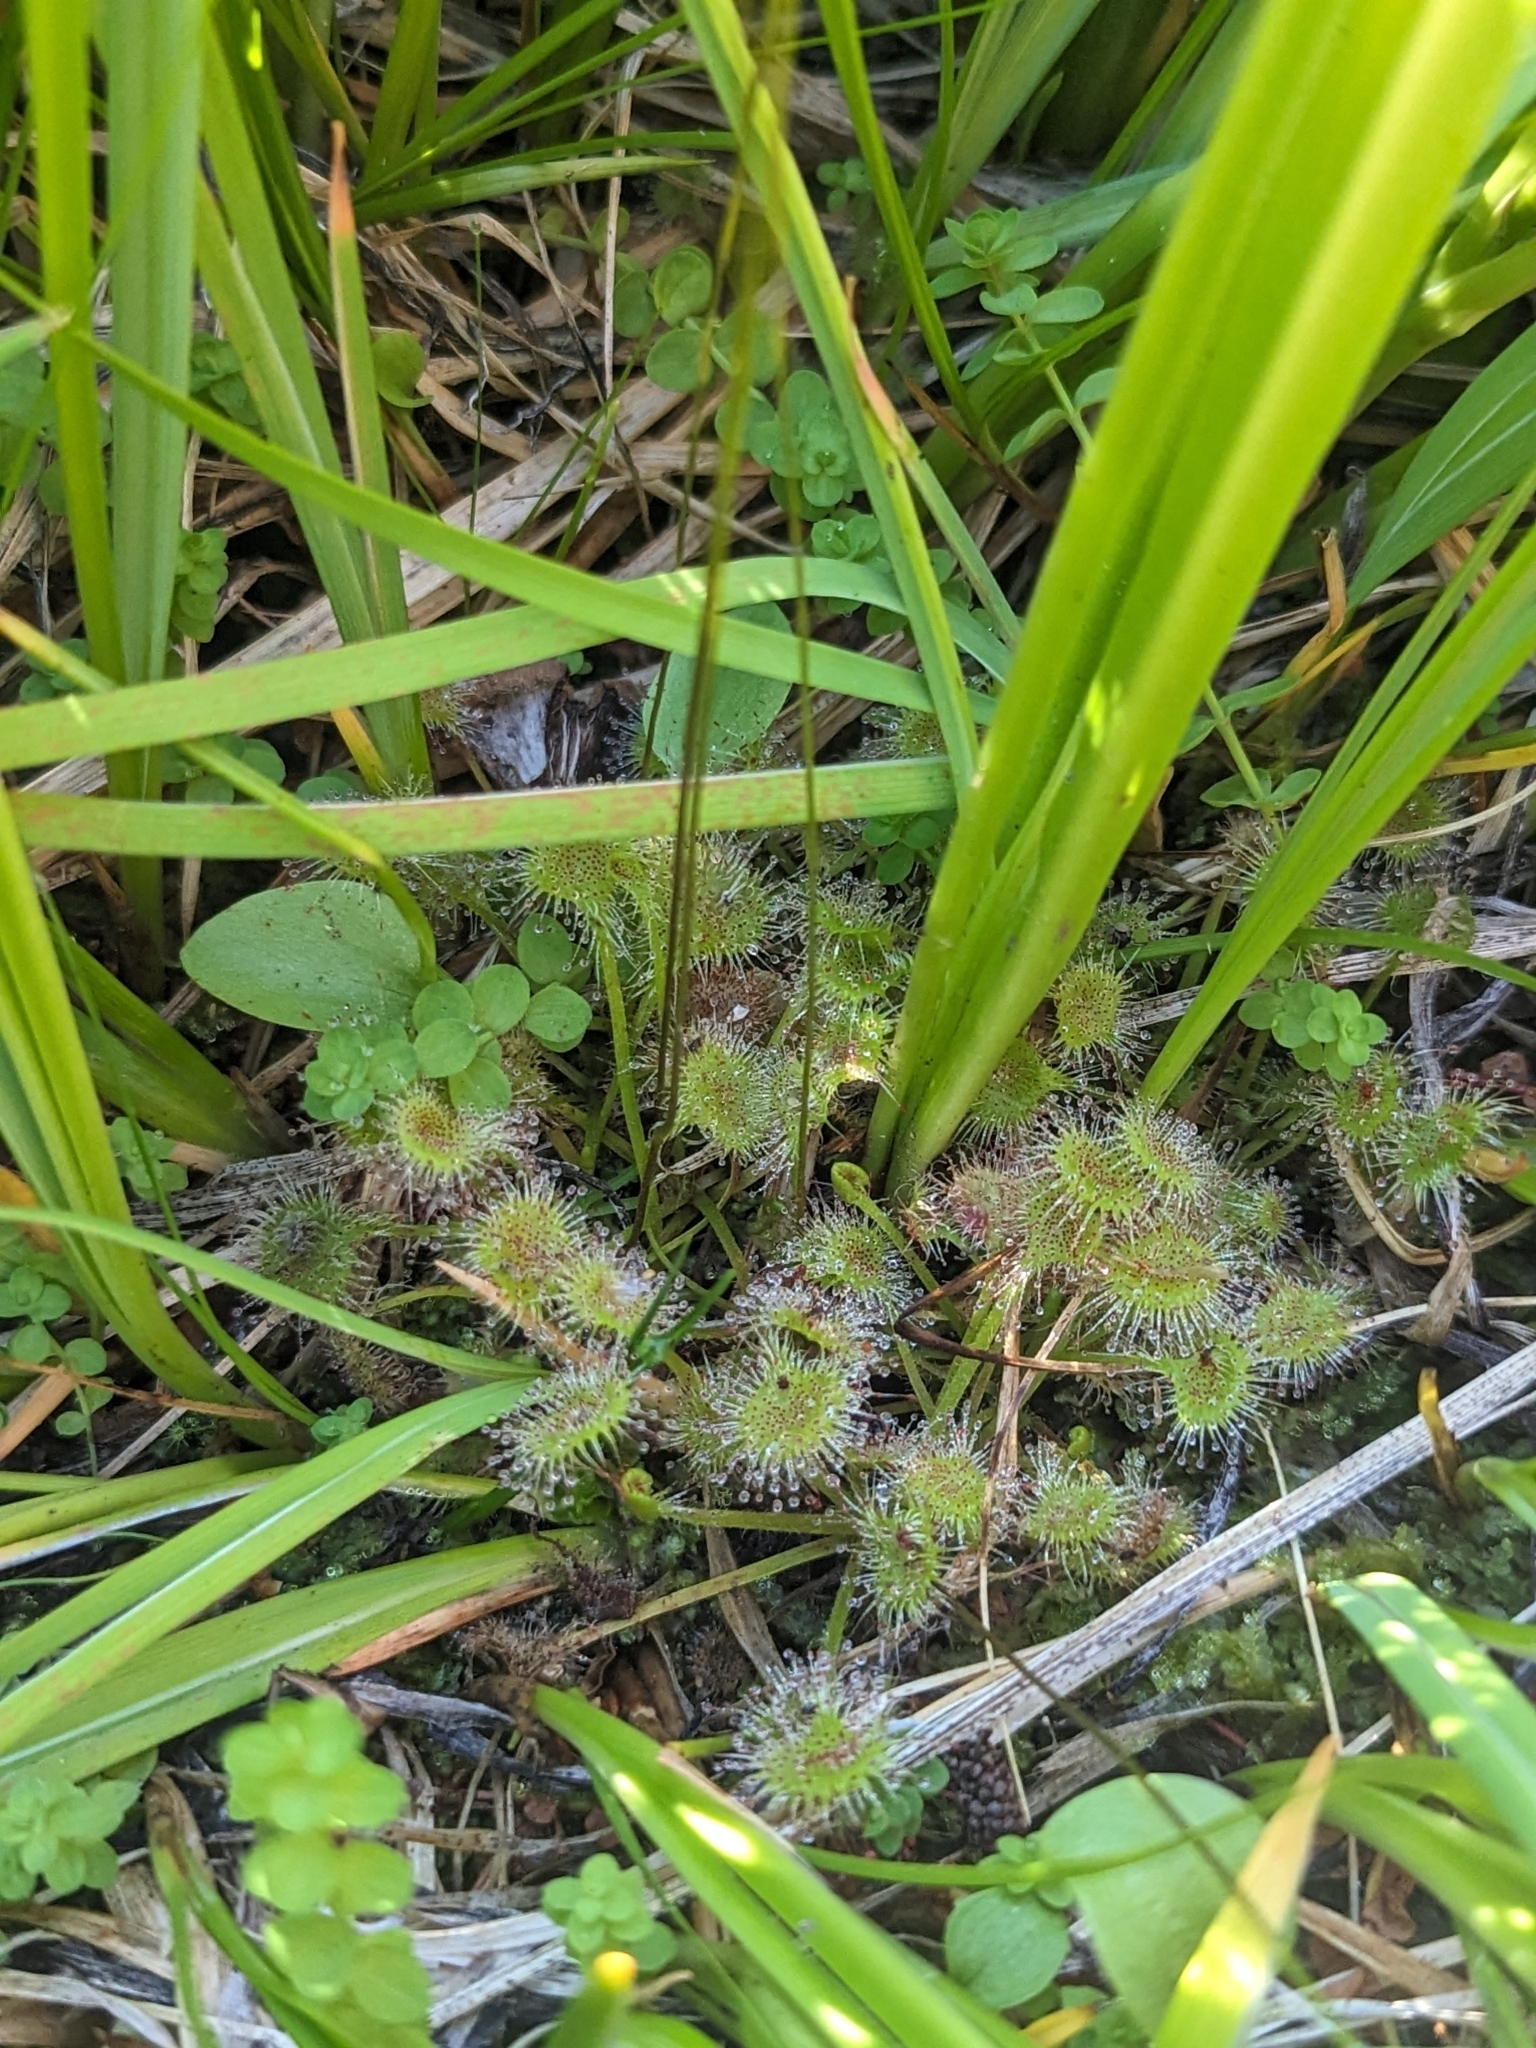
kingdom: Plantae
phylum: Tracheophyta
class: Magnoliopsida
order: Caryophyllales
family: Droseraceae
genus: Drosera
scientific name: Drosera rotundifolia
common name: Round-leaved sundew
